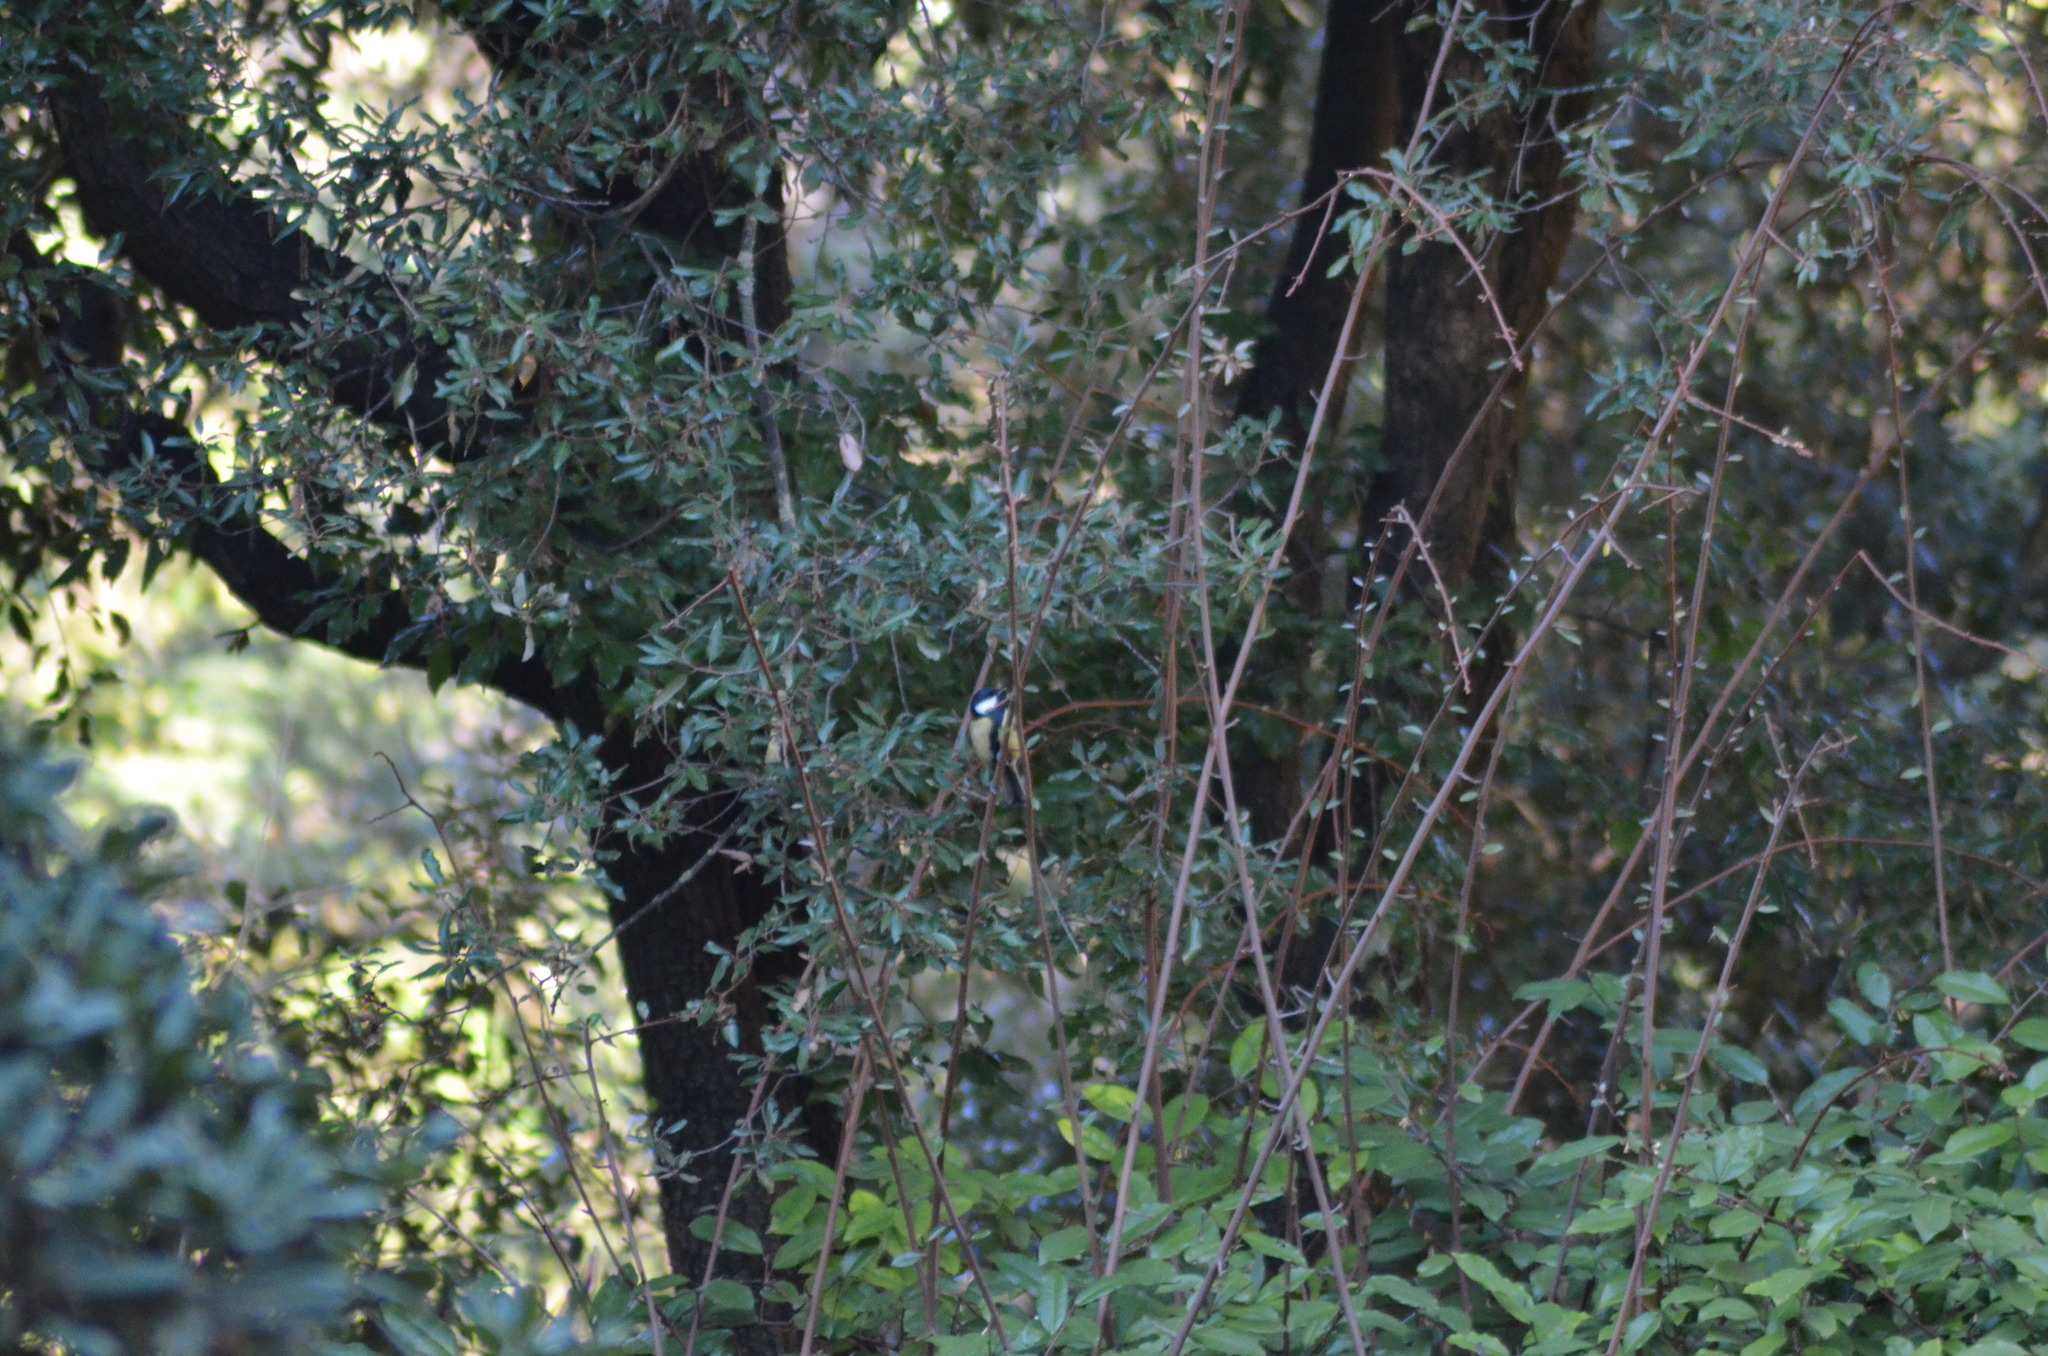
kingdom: Animalia
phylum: Chordata
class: Aves
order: Passeriformes
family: Paridae
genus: Parus
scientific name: Parus major
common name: Great tit
